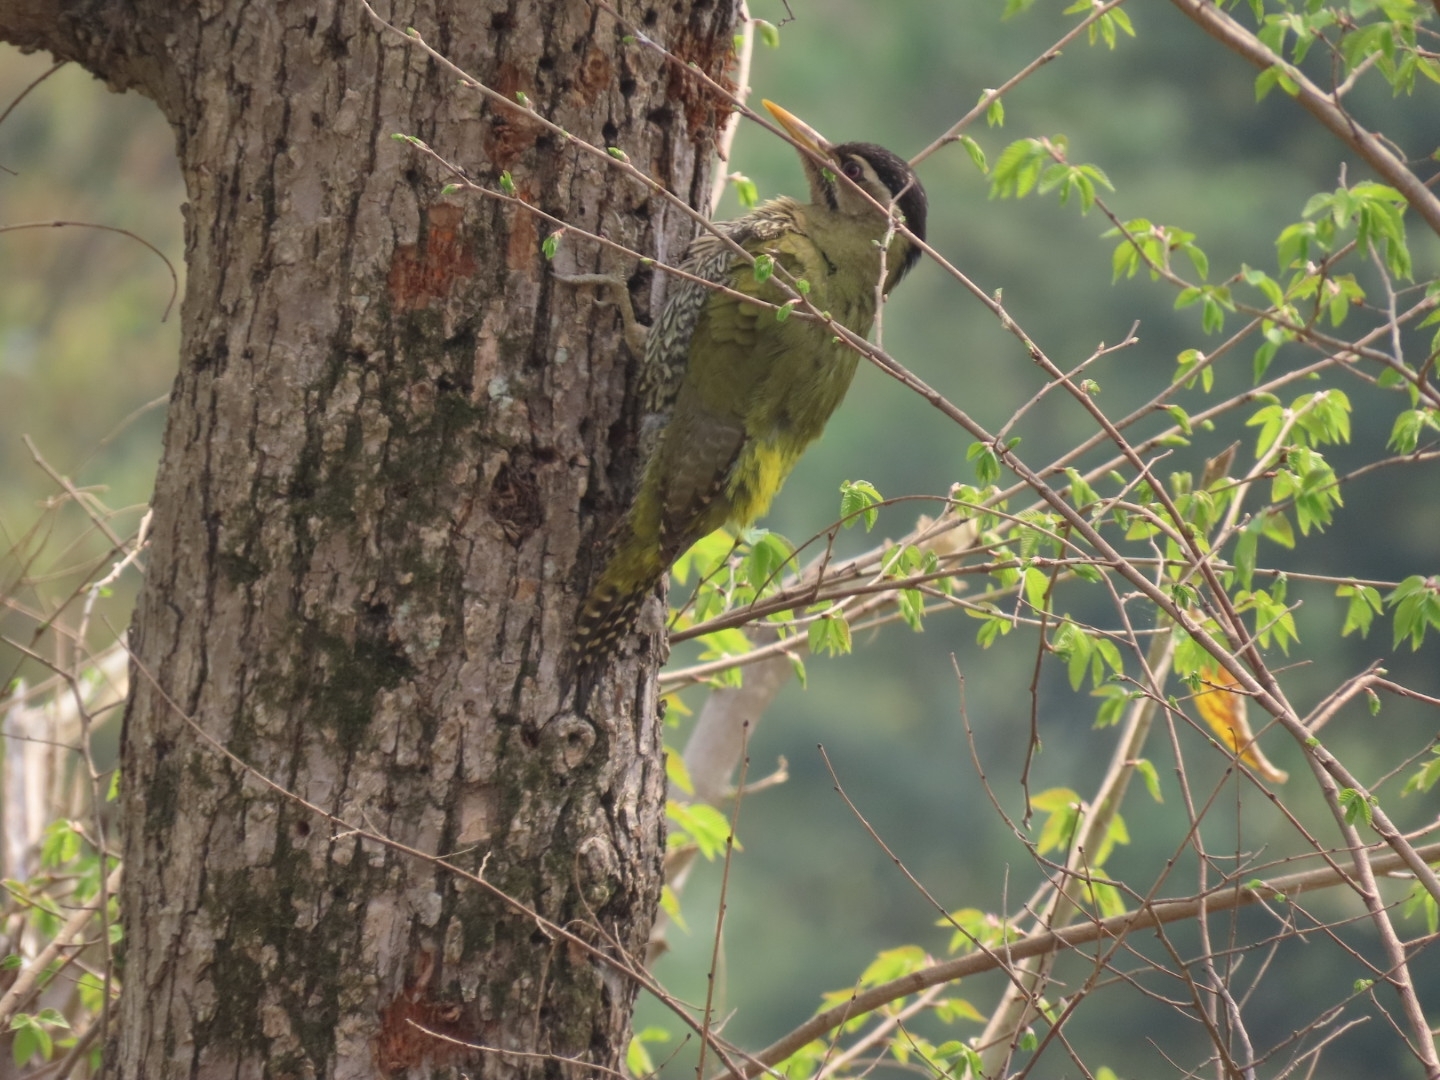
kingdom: Animalia
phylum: Chordata
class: Aves
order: Piciformes
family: Picidae
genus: Picus
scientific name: Picus squamatus
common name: Scaly-bellied woodpecker
